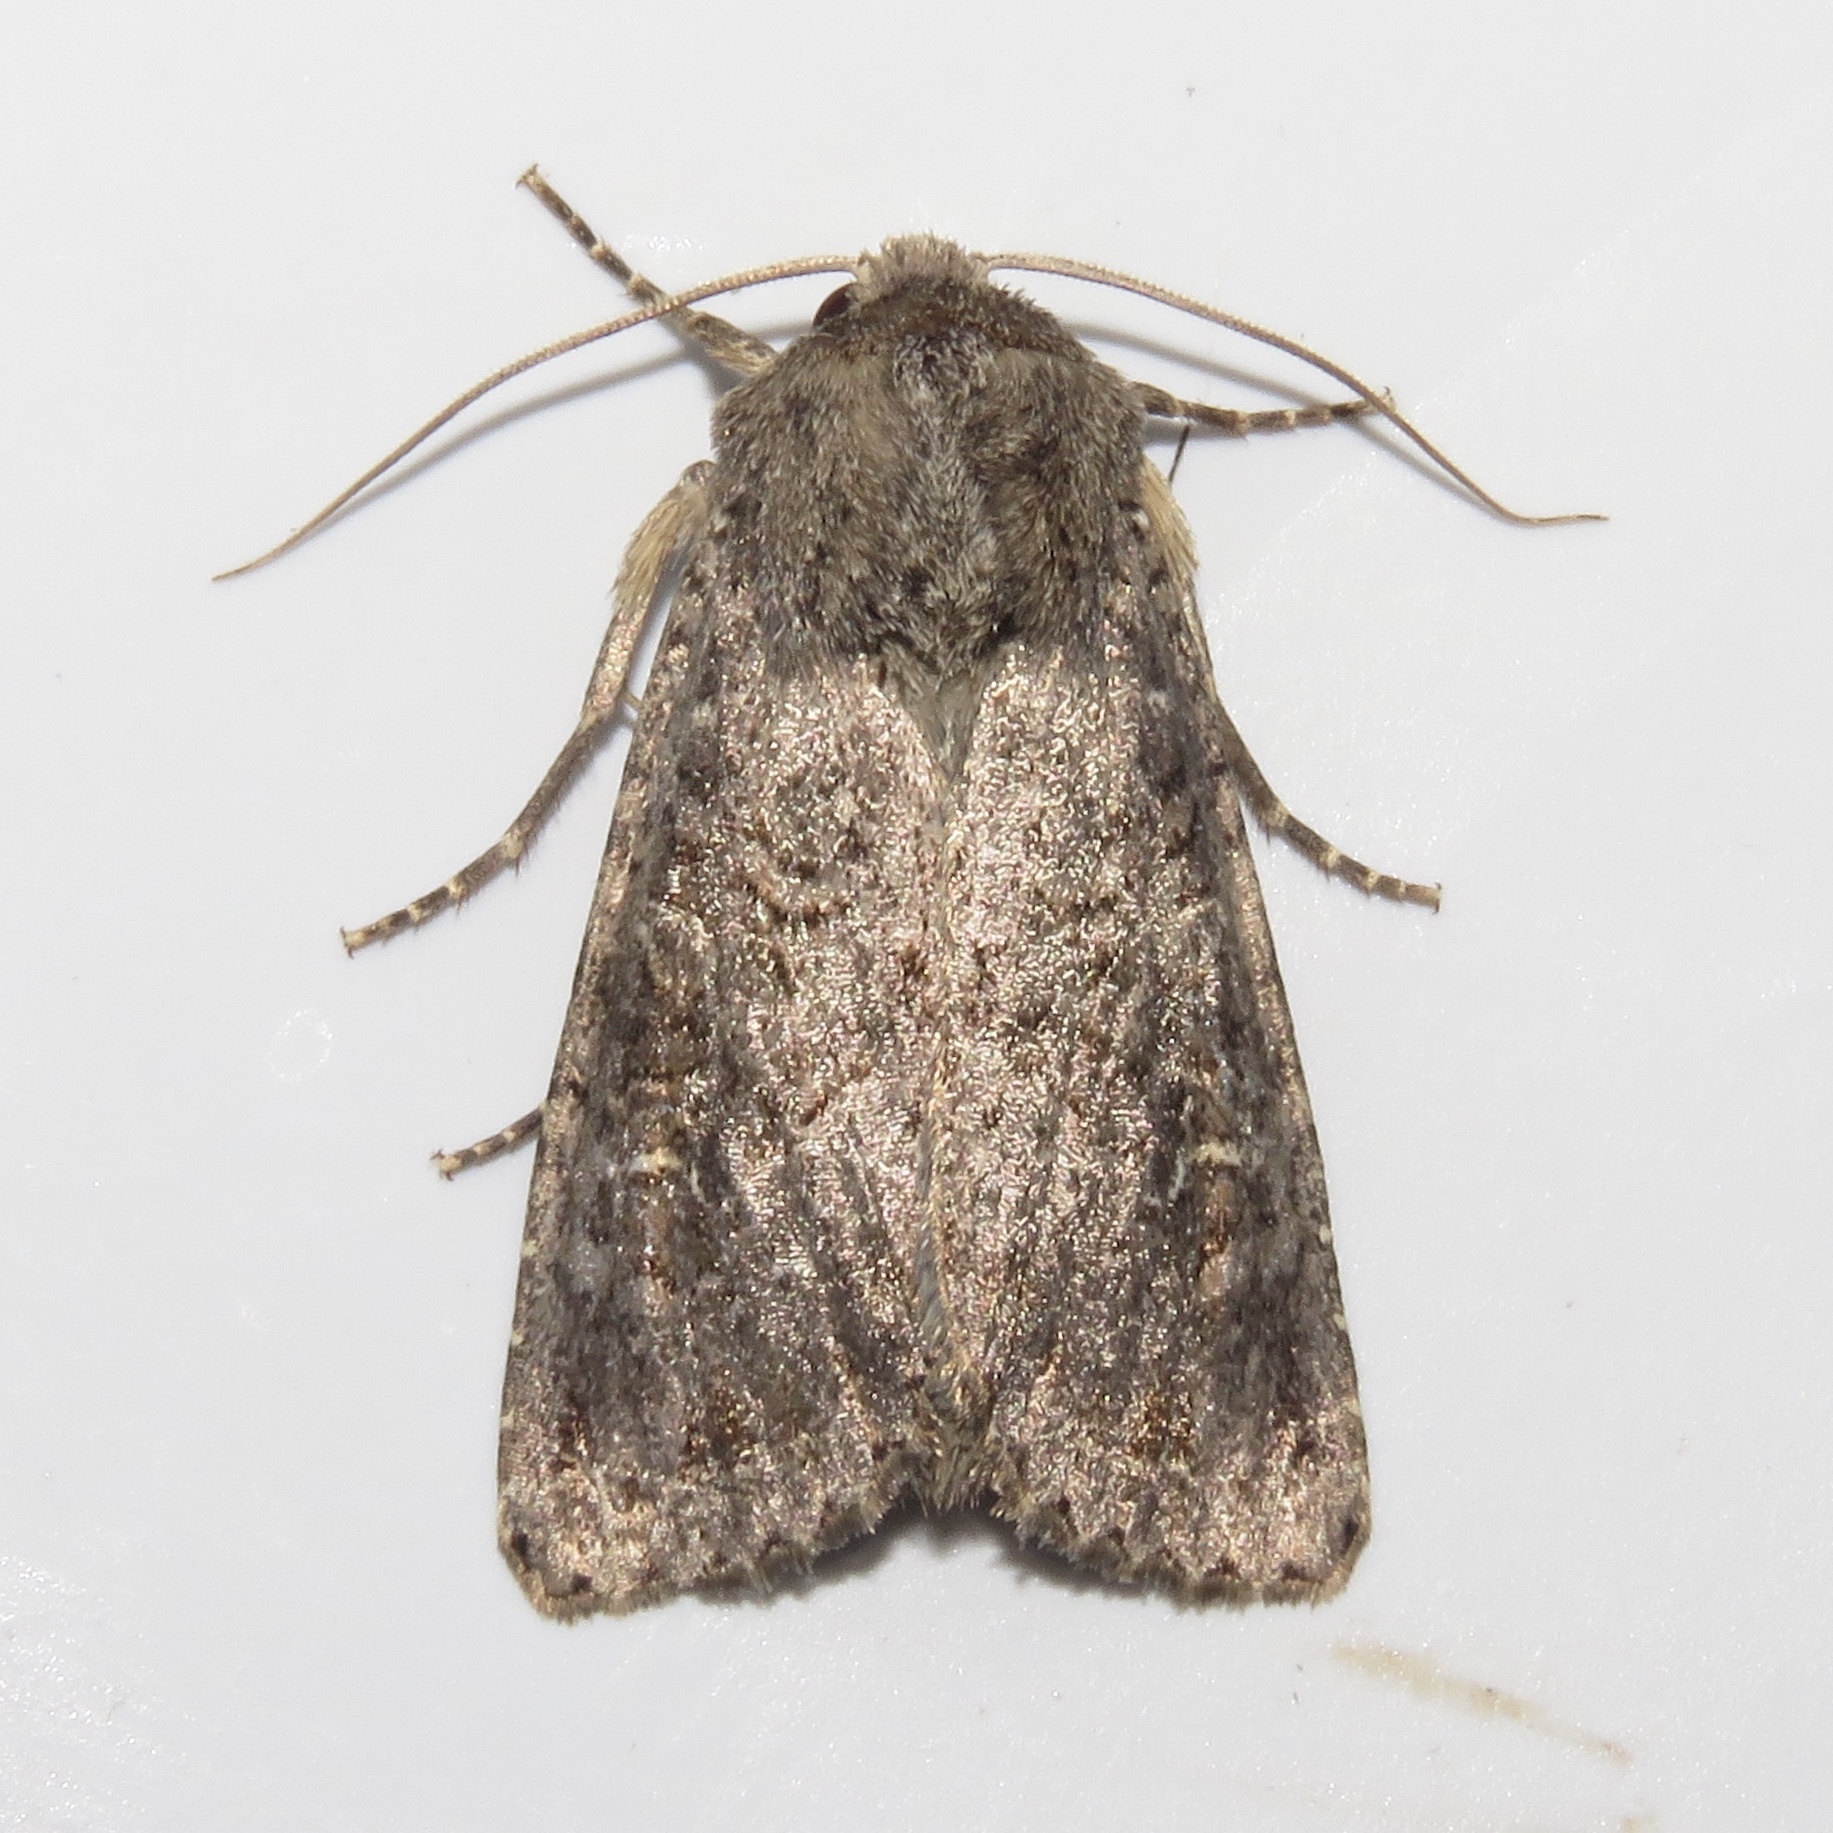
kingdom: Animalia
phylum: Arthropoda
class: Insecta
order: Lepidoptera
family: Noctuidae
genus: Apamea
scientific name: Apamea devastator
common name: Glassy cutworm
